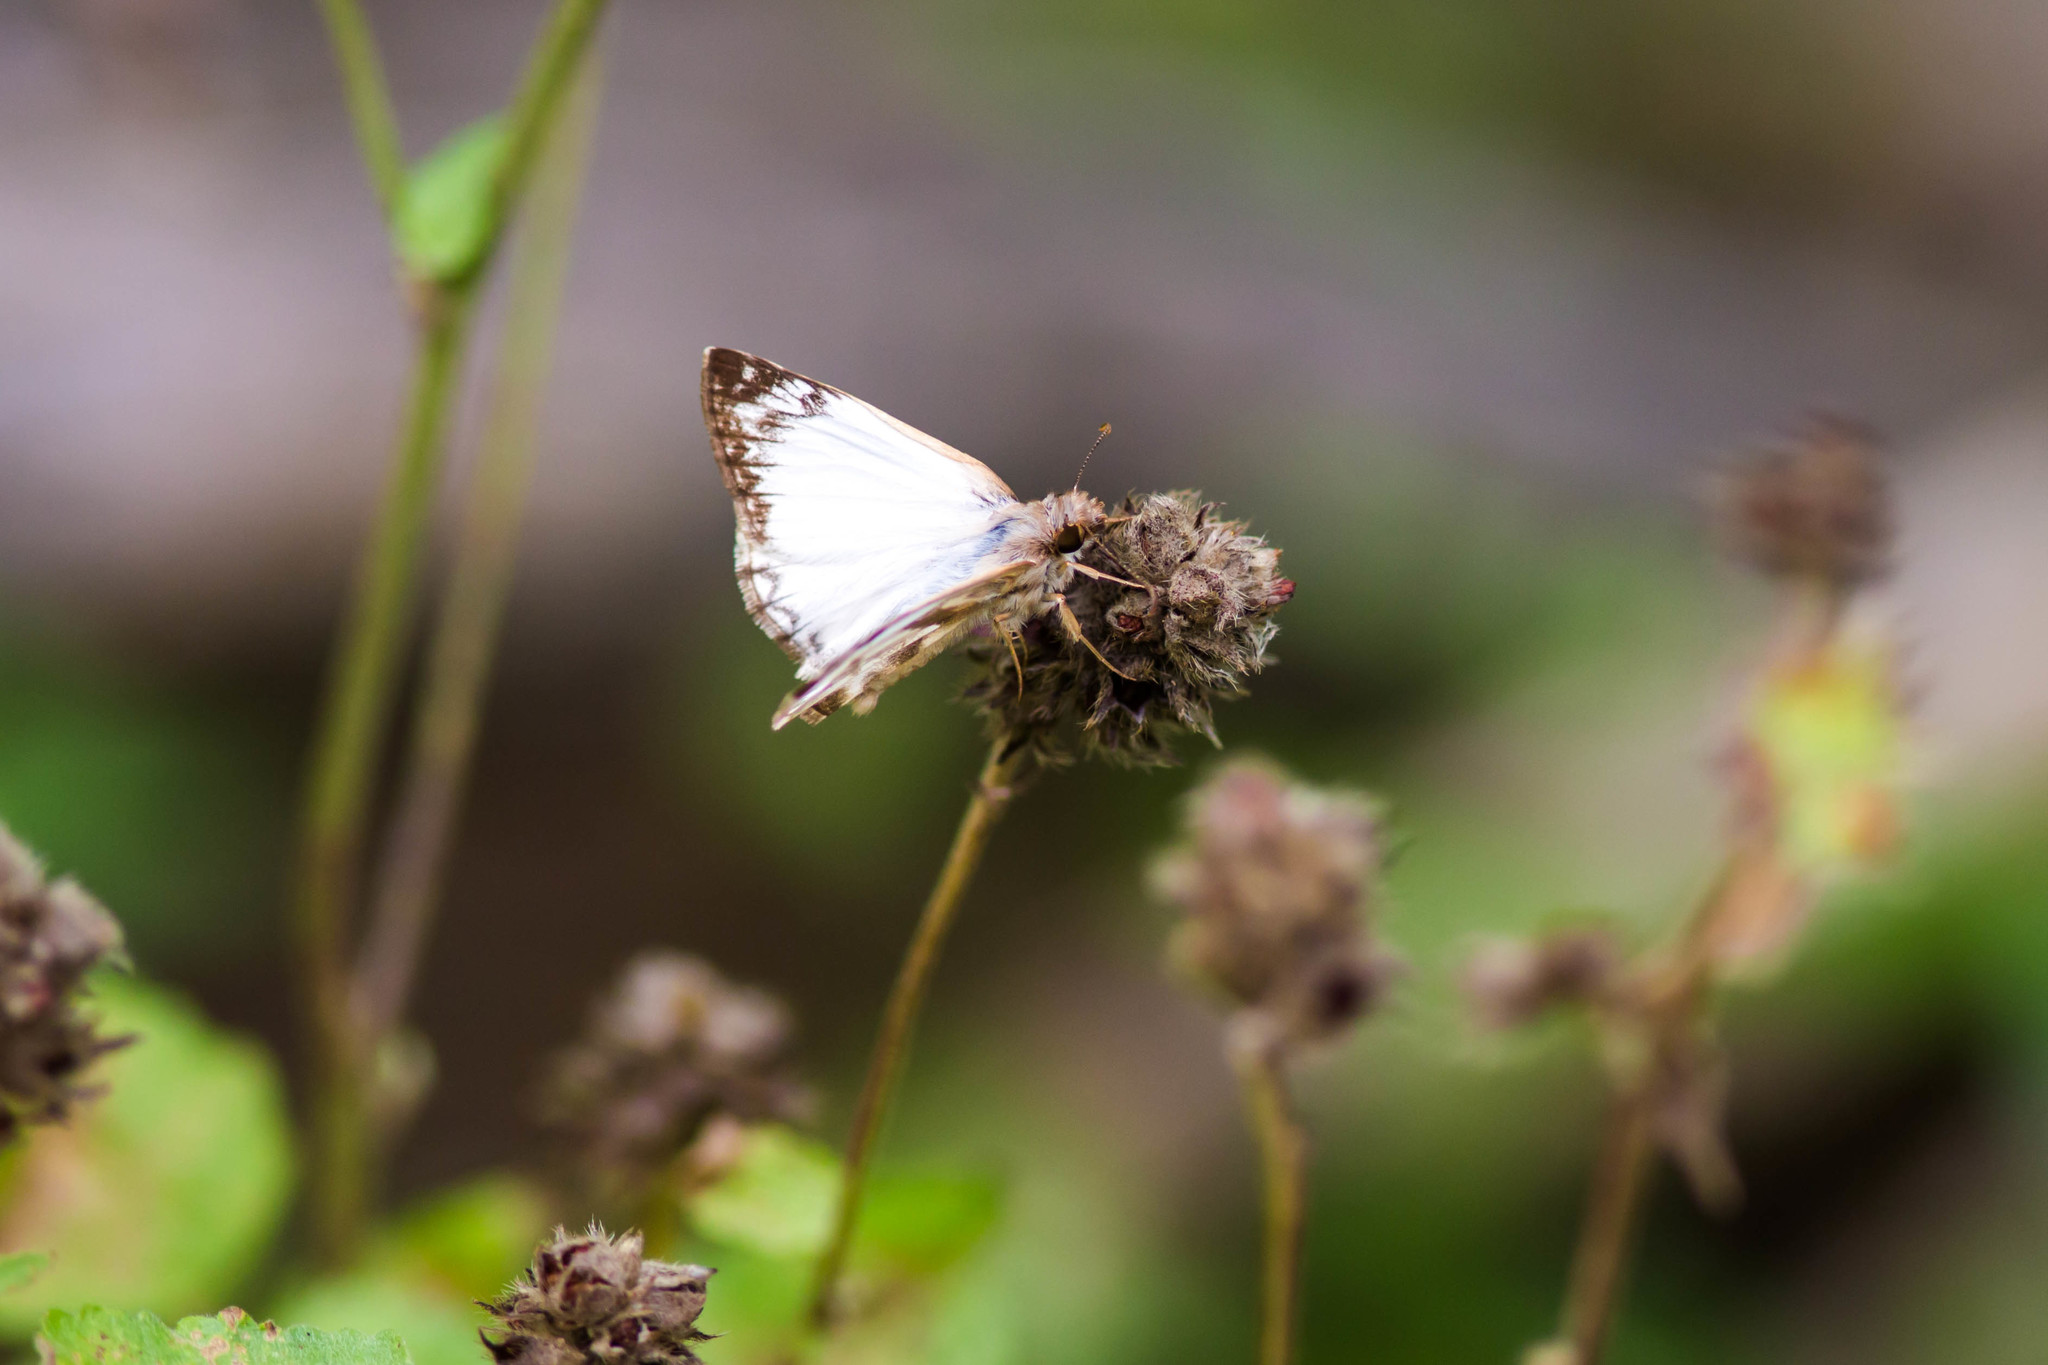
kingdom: Animalia
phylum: Arthropoda
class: Insecta
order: Lepidoptera
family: Hesperiidae
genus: Heliopetes
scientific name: Heliopetes laviana
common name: Laviana white-skipper
